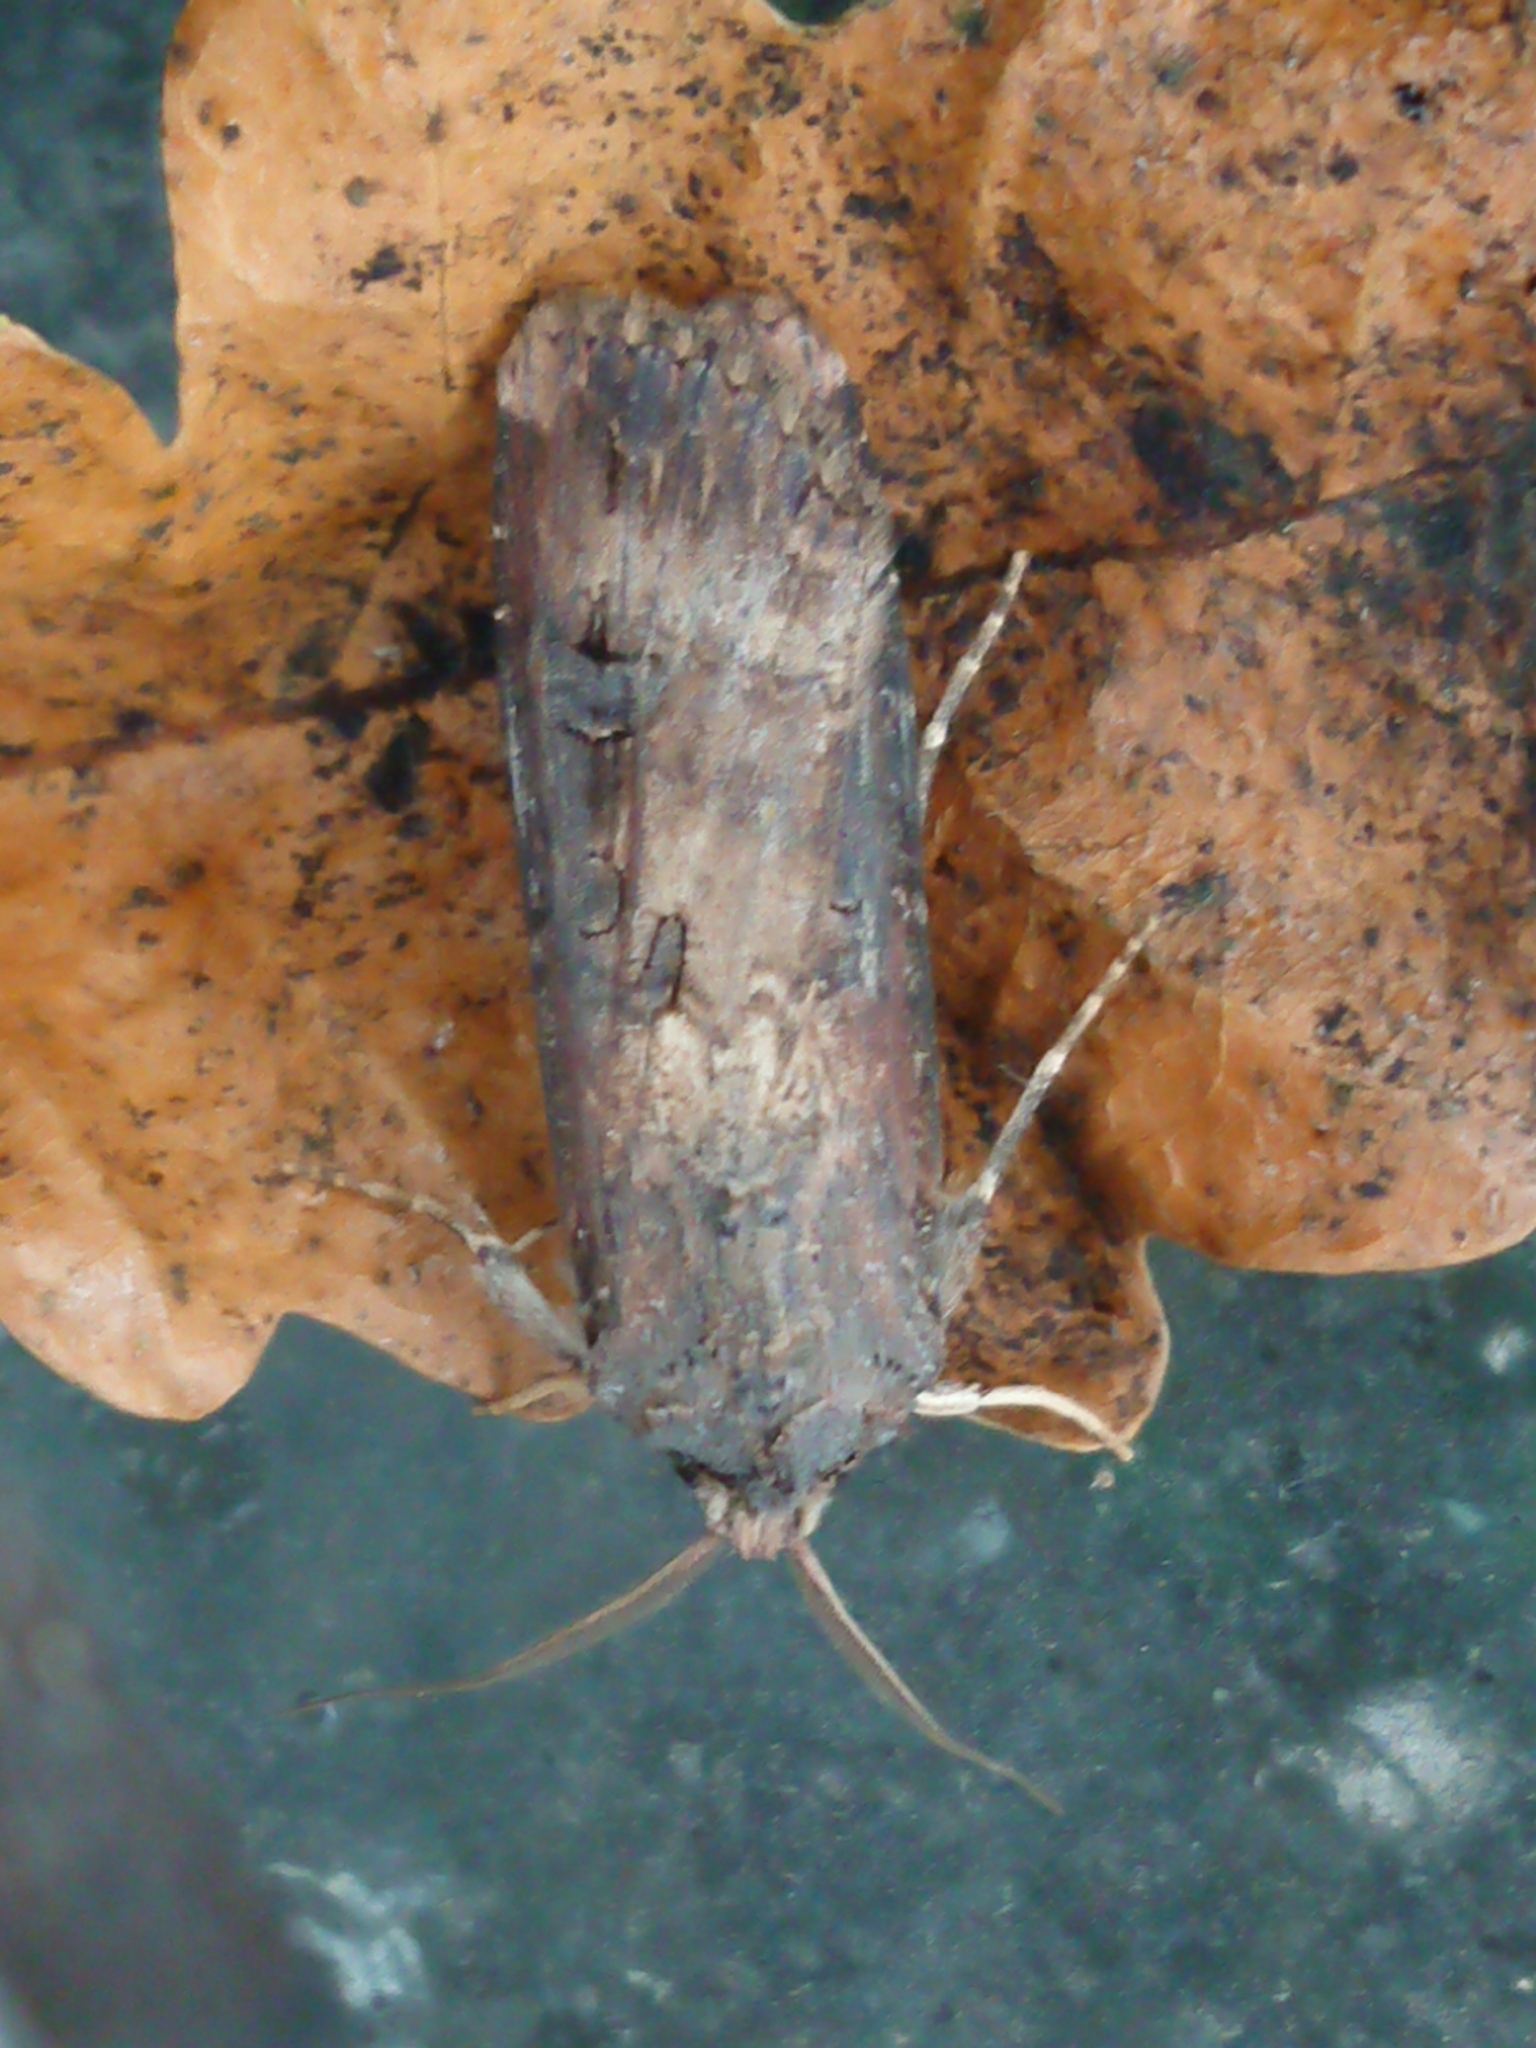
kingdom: Animalia
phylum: Arthropoda
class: Insecta
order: Lepidoptera
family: Noctuidae
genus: Agrotis
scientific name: Agrotis ipsilon
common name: Dark sword-grass
